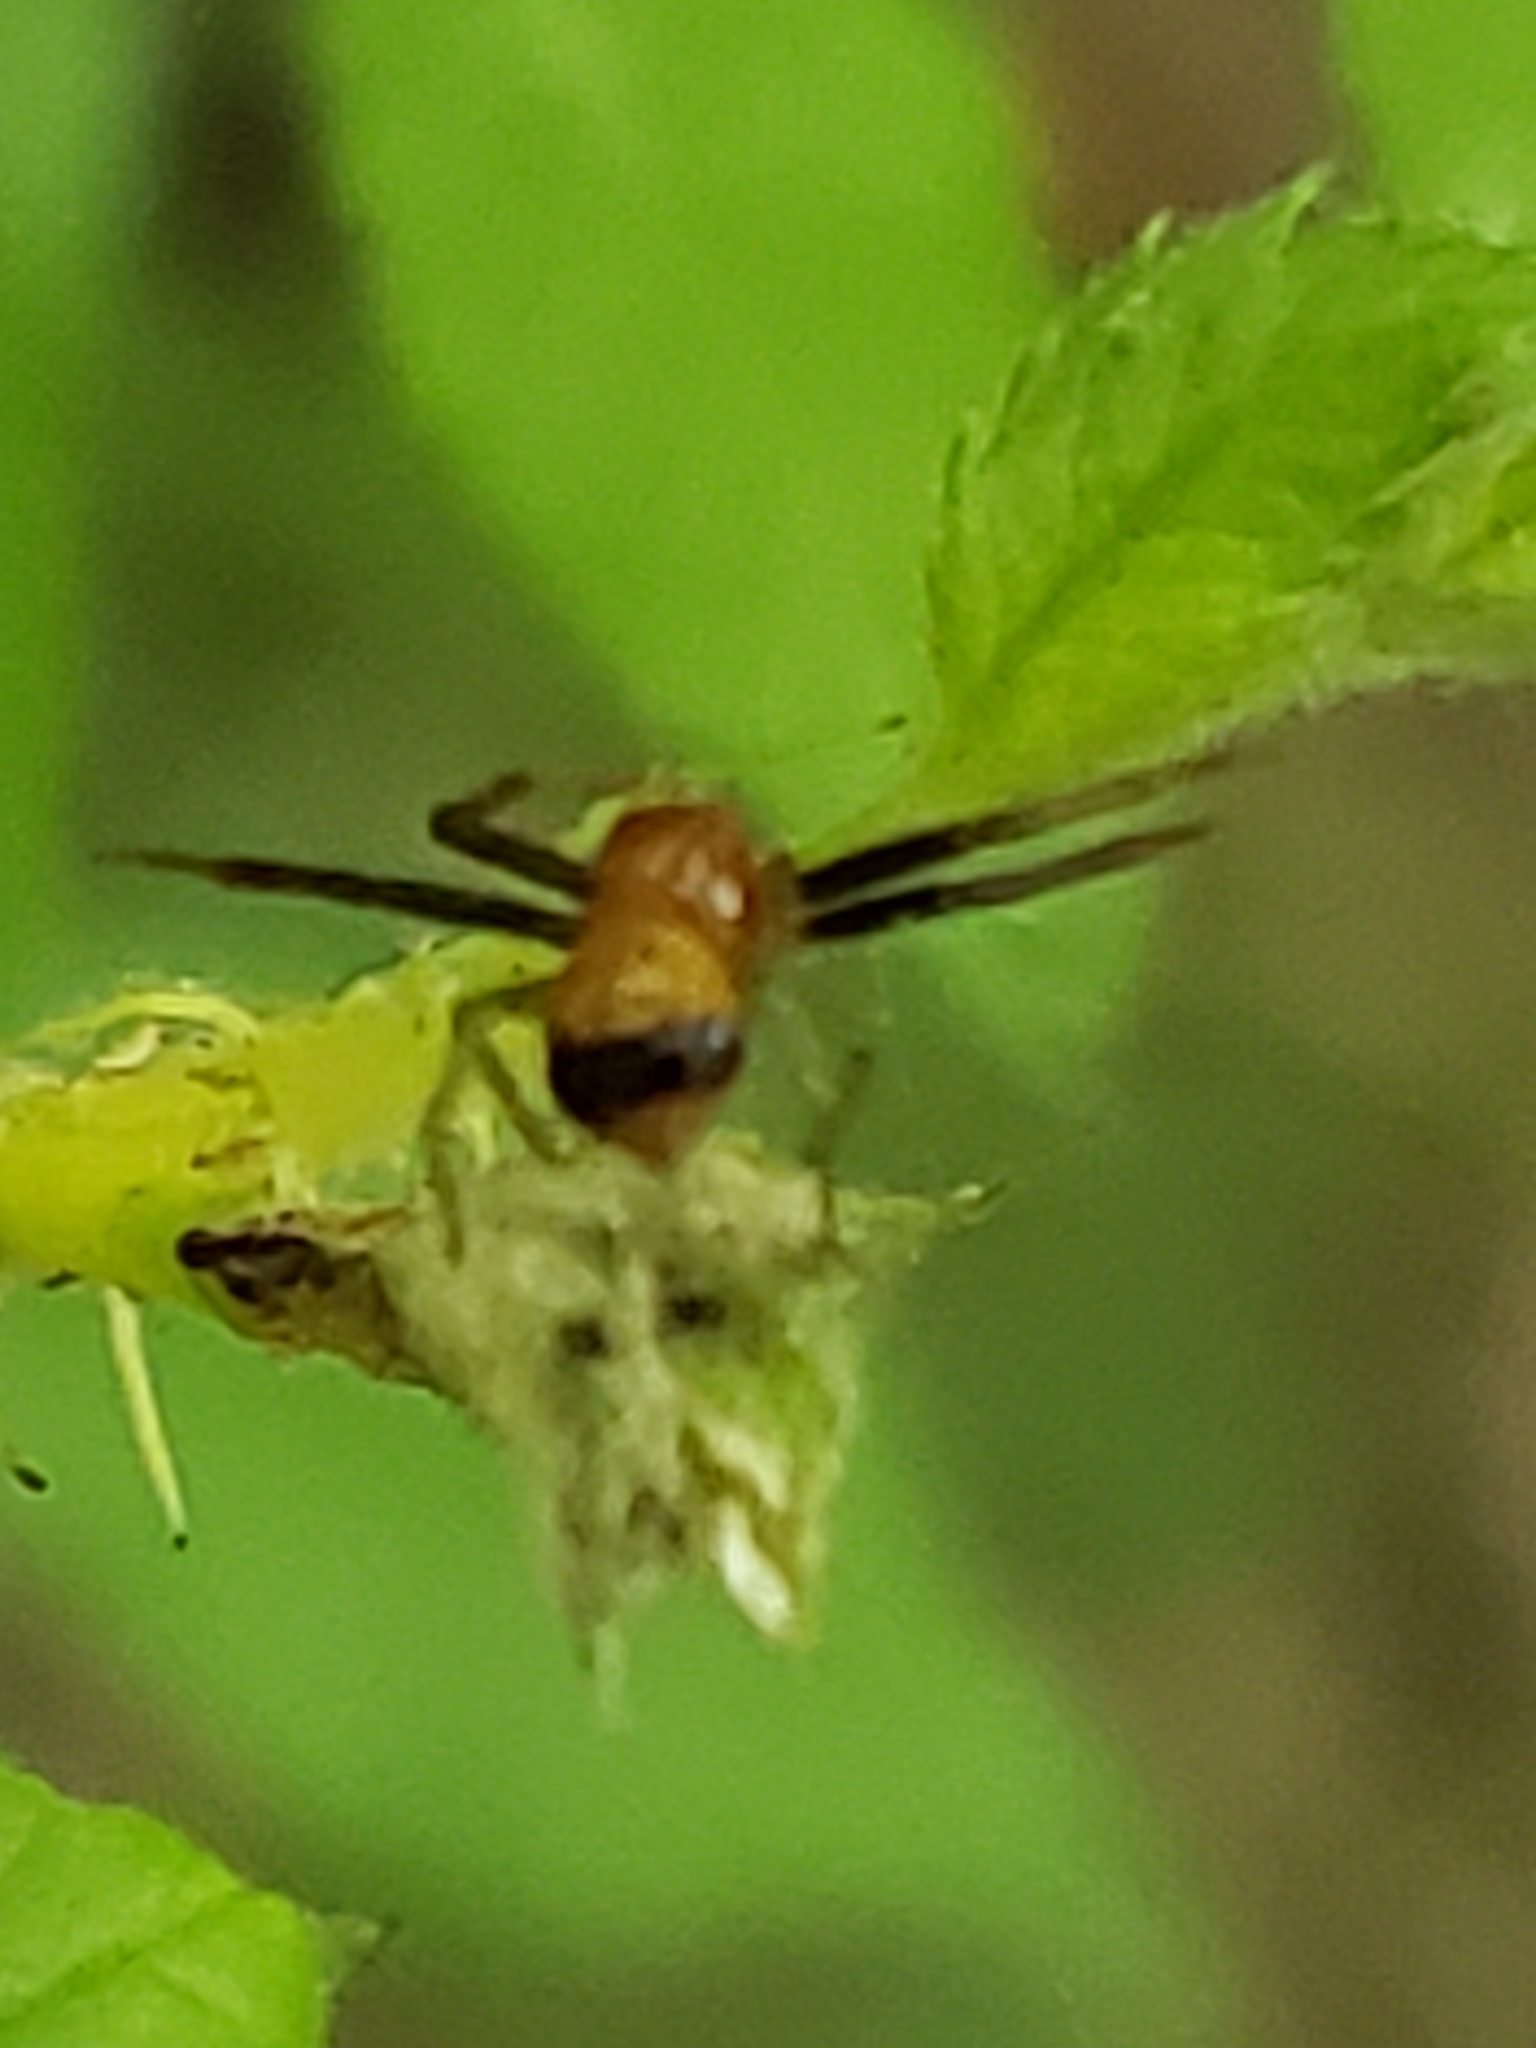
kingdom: Animalia
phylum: Arthropoda
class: Arachnida
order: Araneae
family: Thomisidae
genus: Synema
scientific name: Synema parvulum
